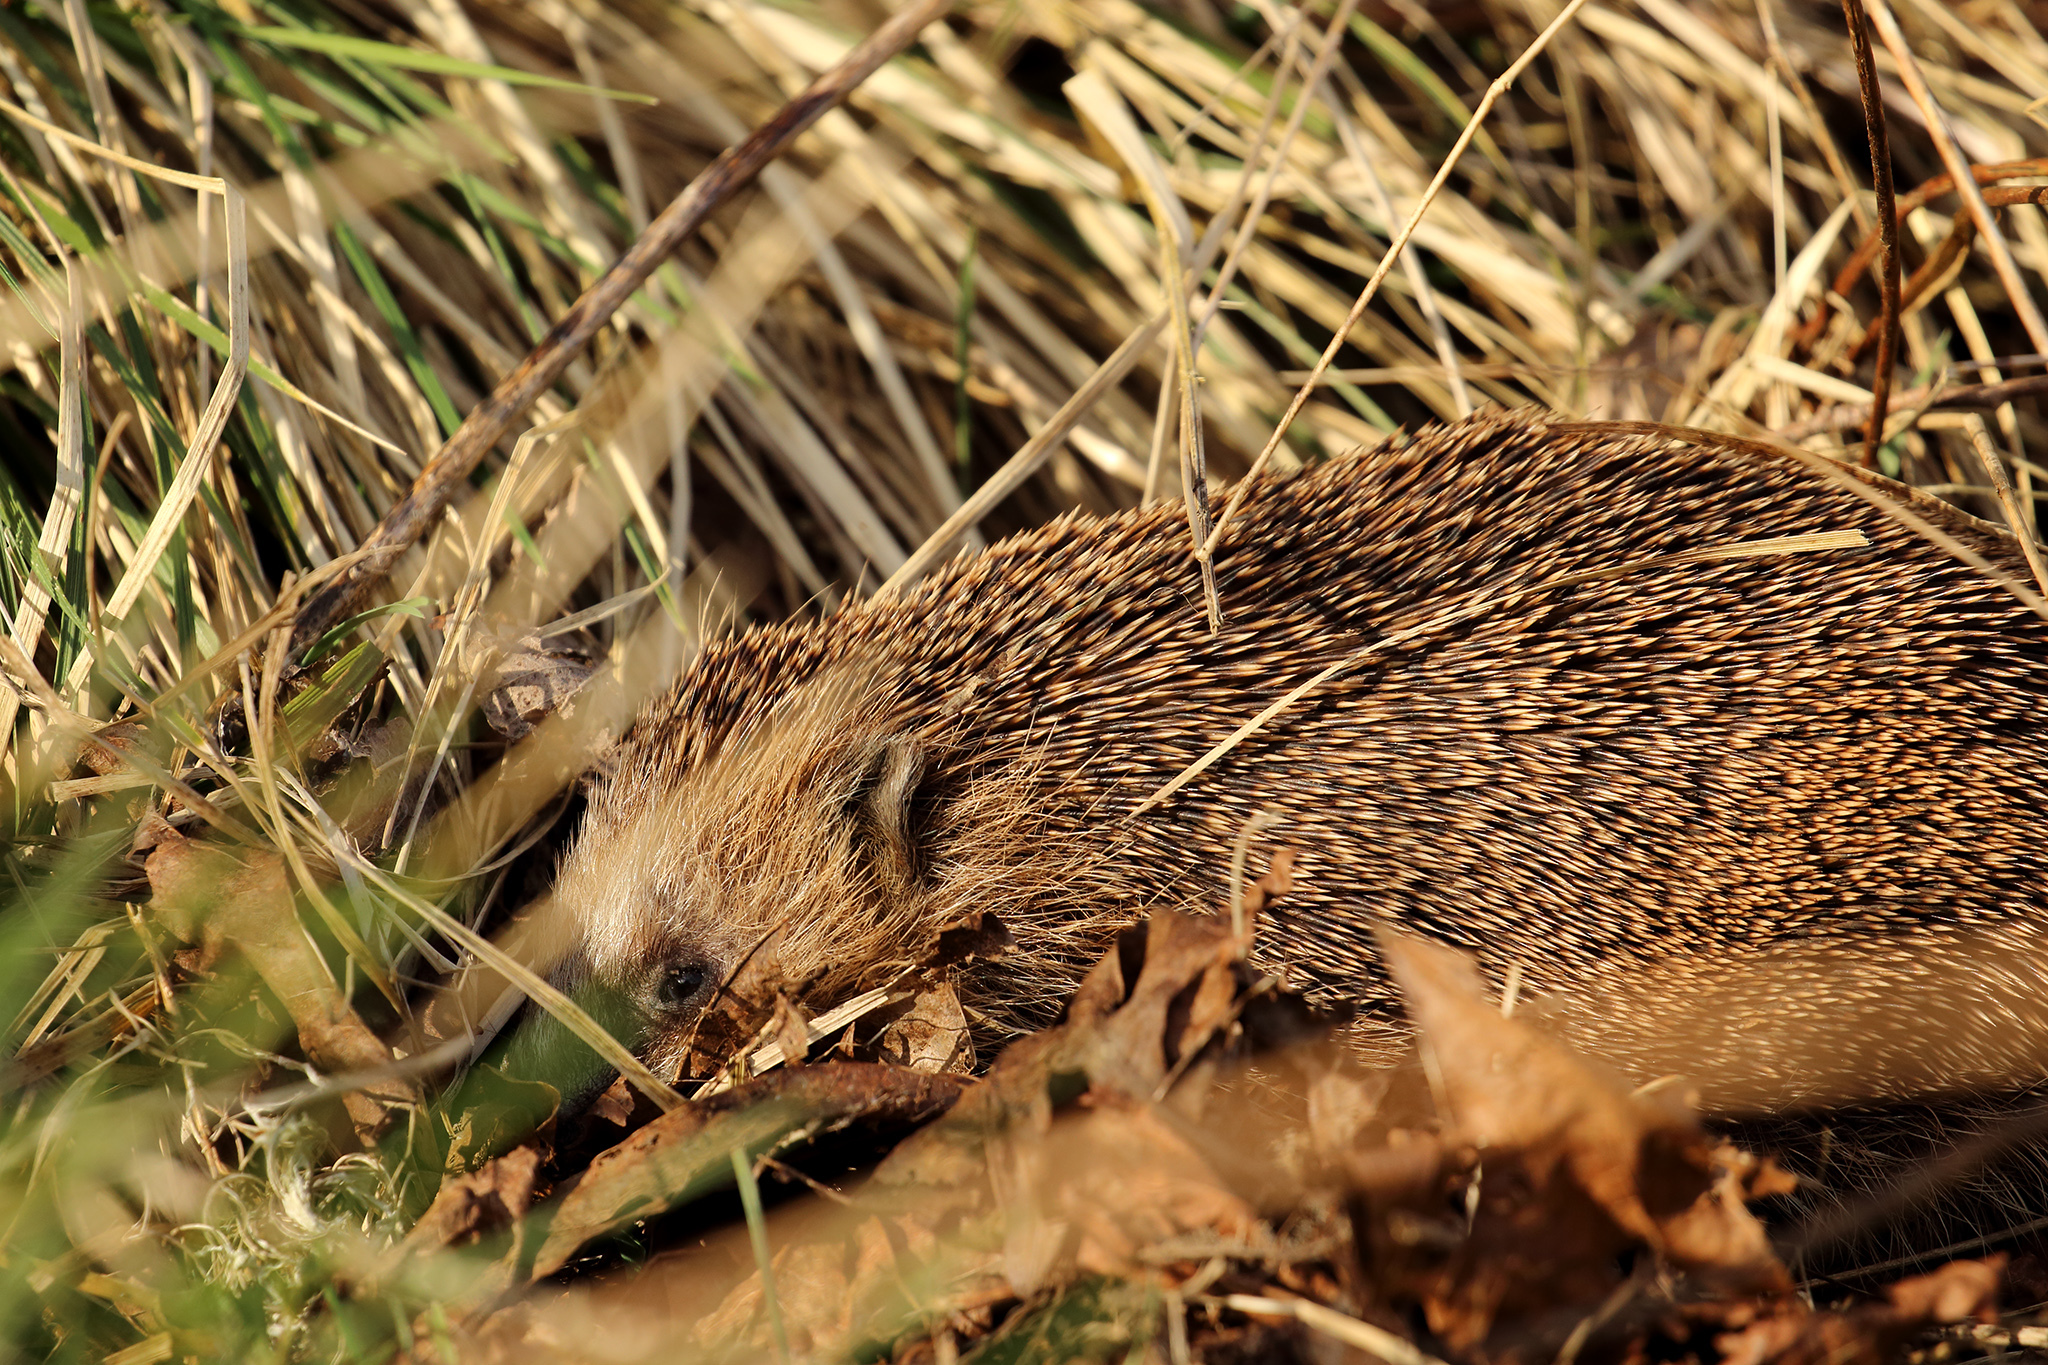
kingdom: Animalia
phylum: Chordata
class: Mammalia
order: Erinaceomorpha
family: Erinaceidae
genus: Erinaceus
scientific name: Erinaceus europaeus
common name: West european hedgehog
